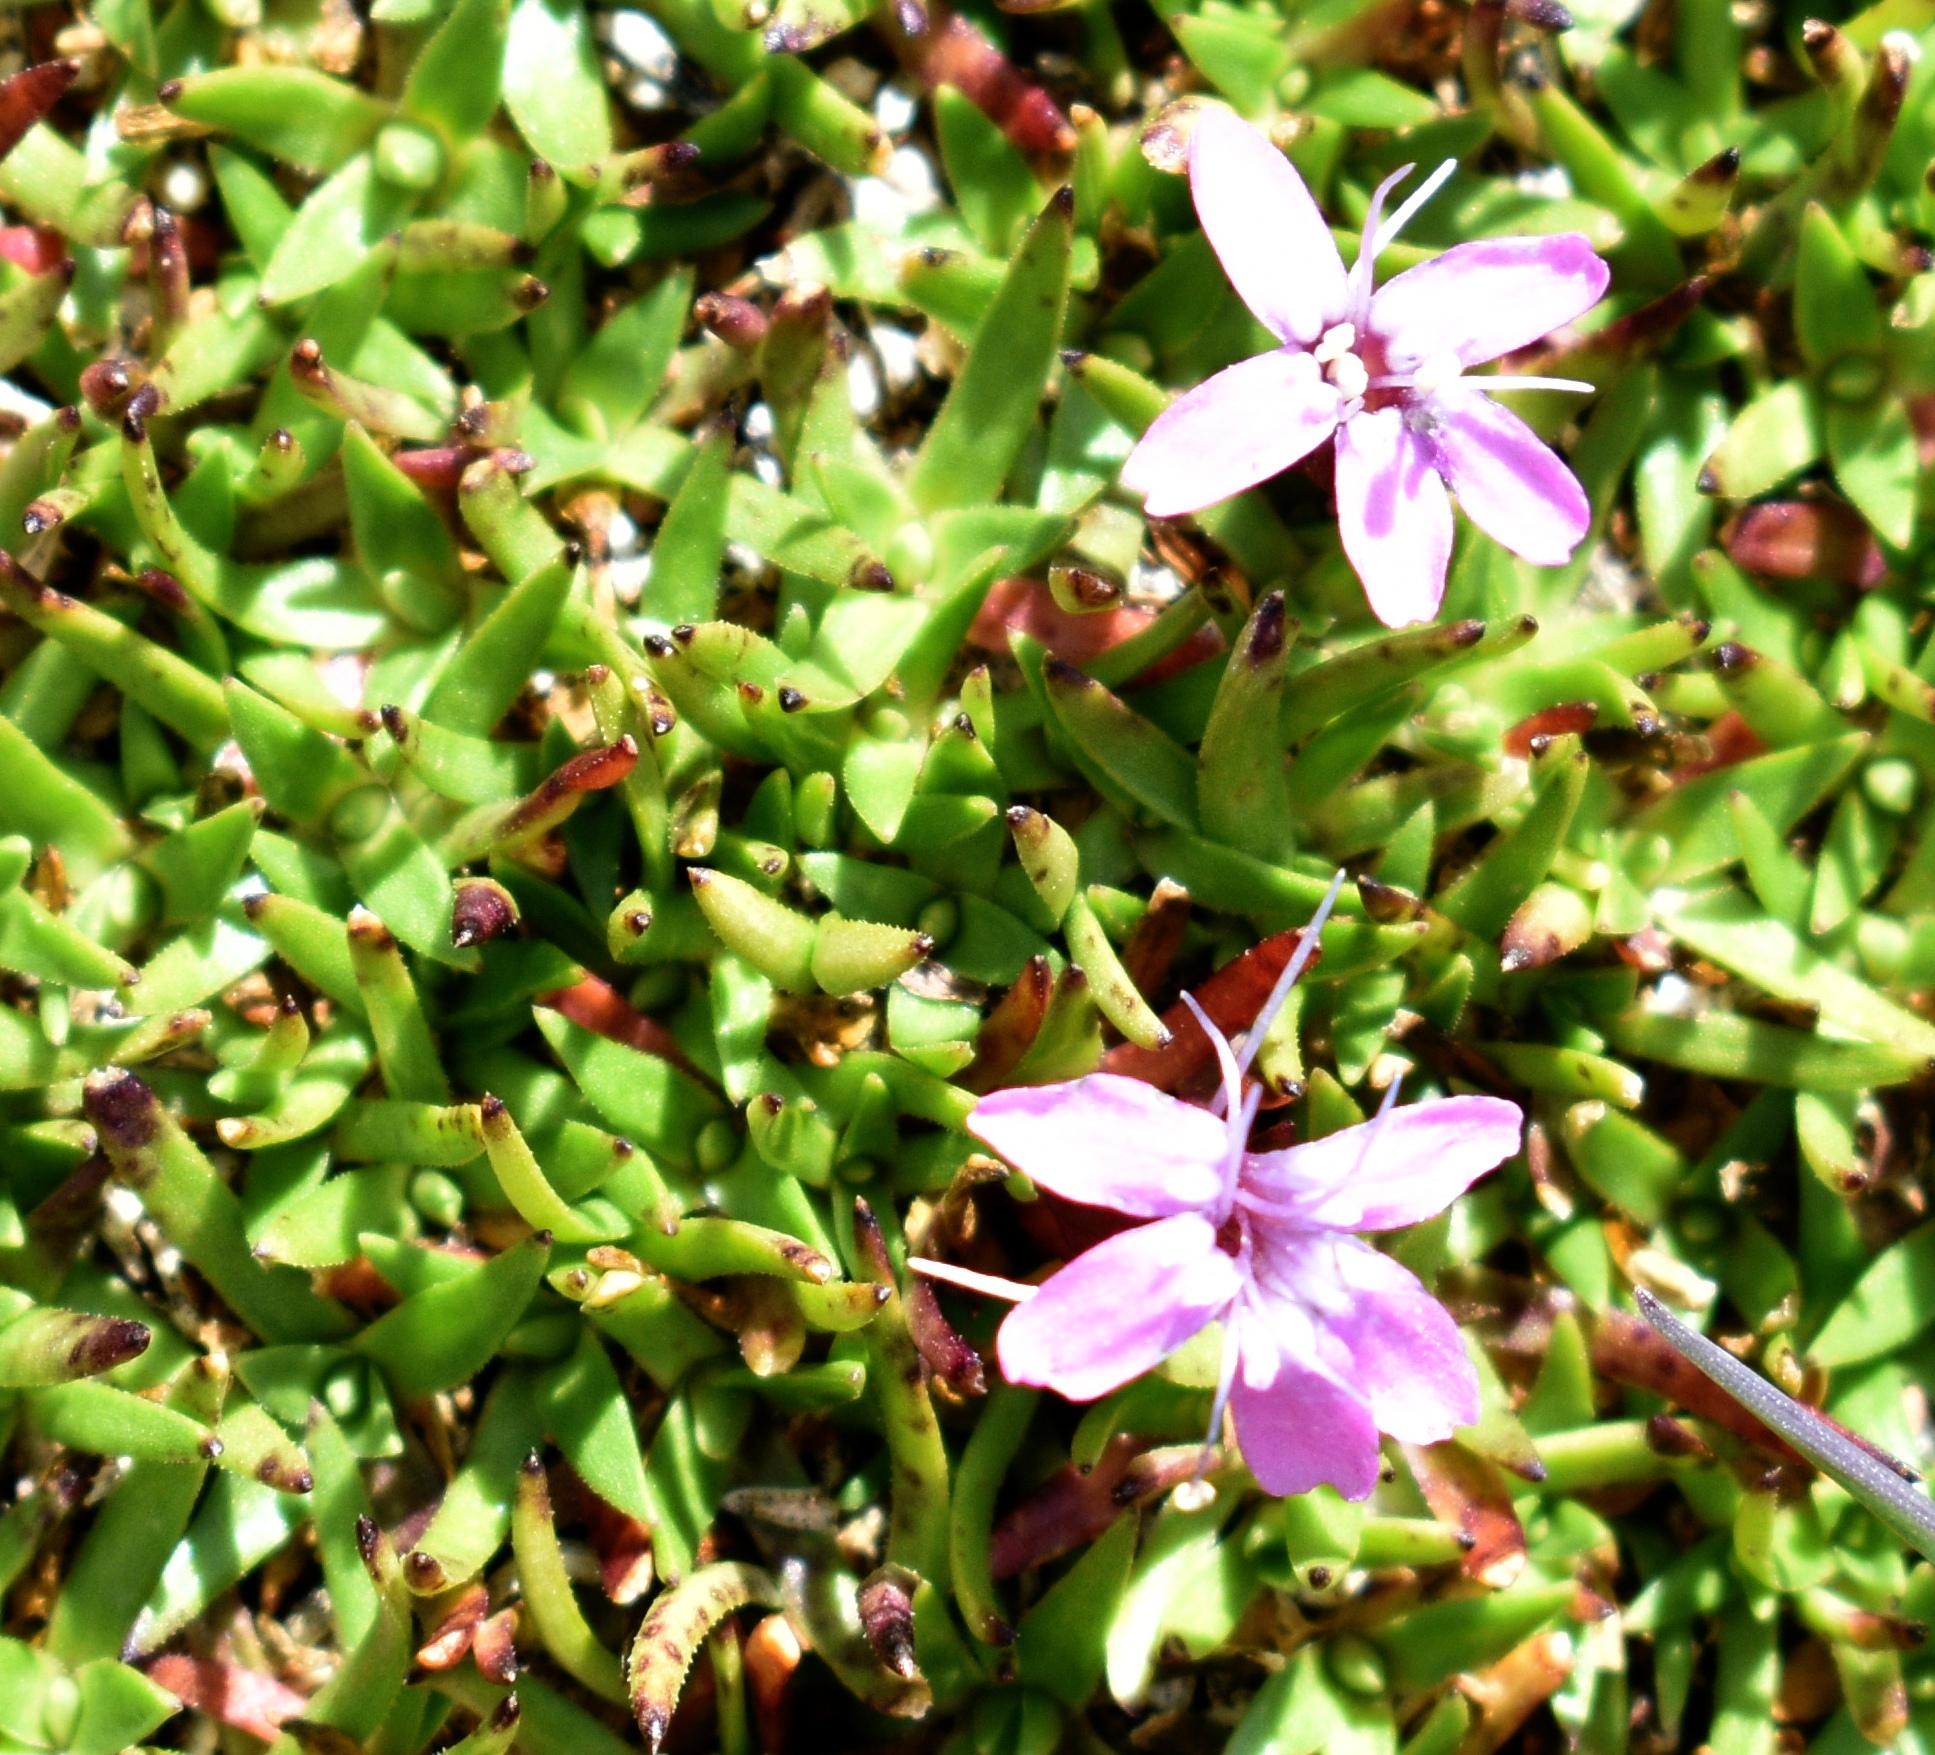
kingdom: Plantae
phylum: Tracheophyta
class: Magnoliopsida
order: Caryophyllales
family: Caryophyllaceae
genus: Silene
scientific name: Silene acaulis
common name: Moss campion
